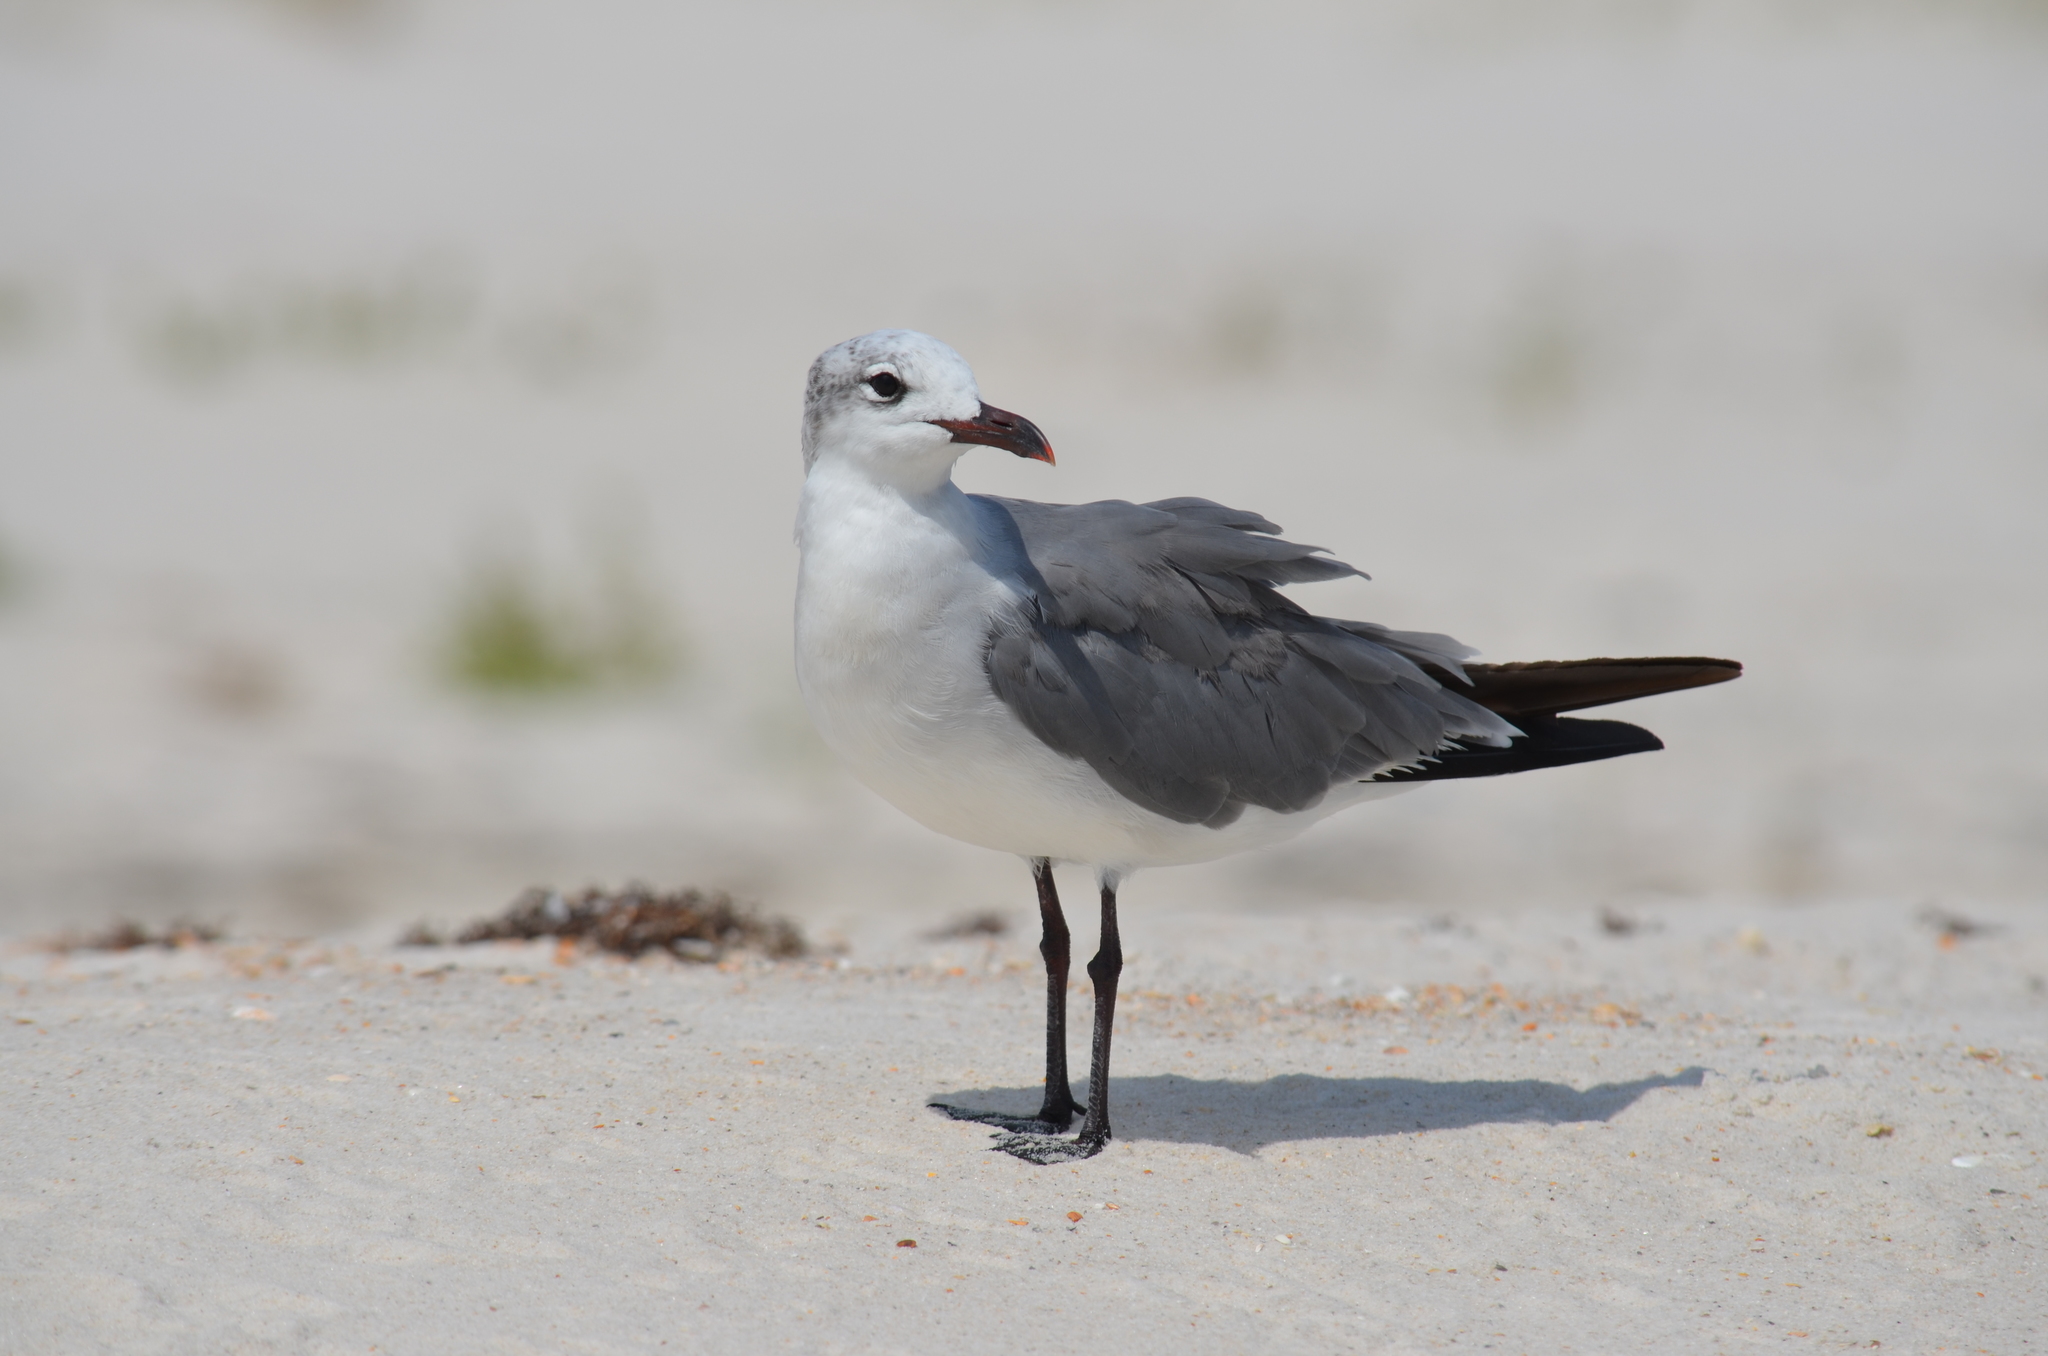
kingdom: Animalia
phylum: Chordata
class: Aves
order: Charadriiformes
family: Laridae
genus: Leucophaeus
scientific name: Leucophaeus atricilla
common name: Laughing gull
